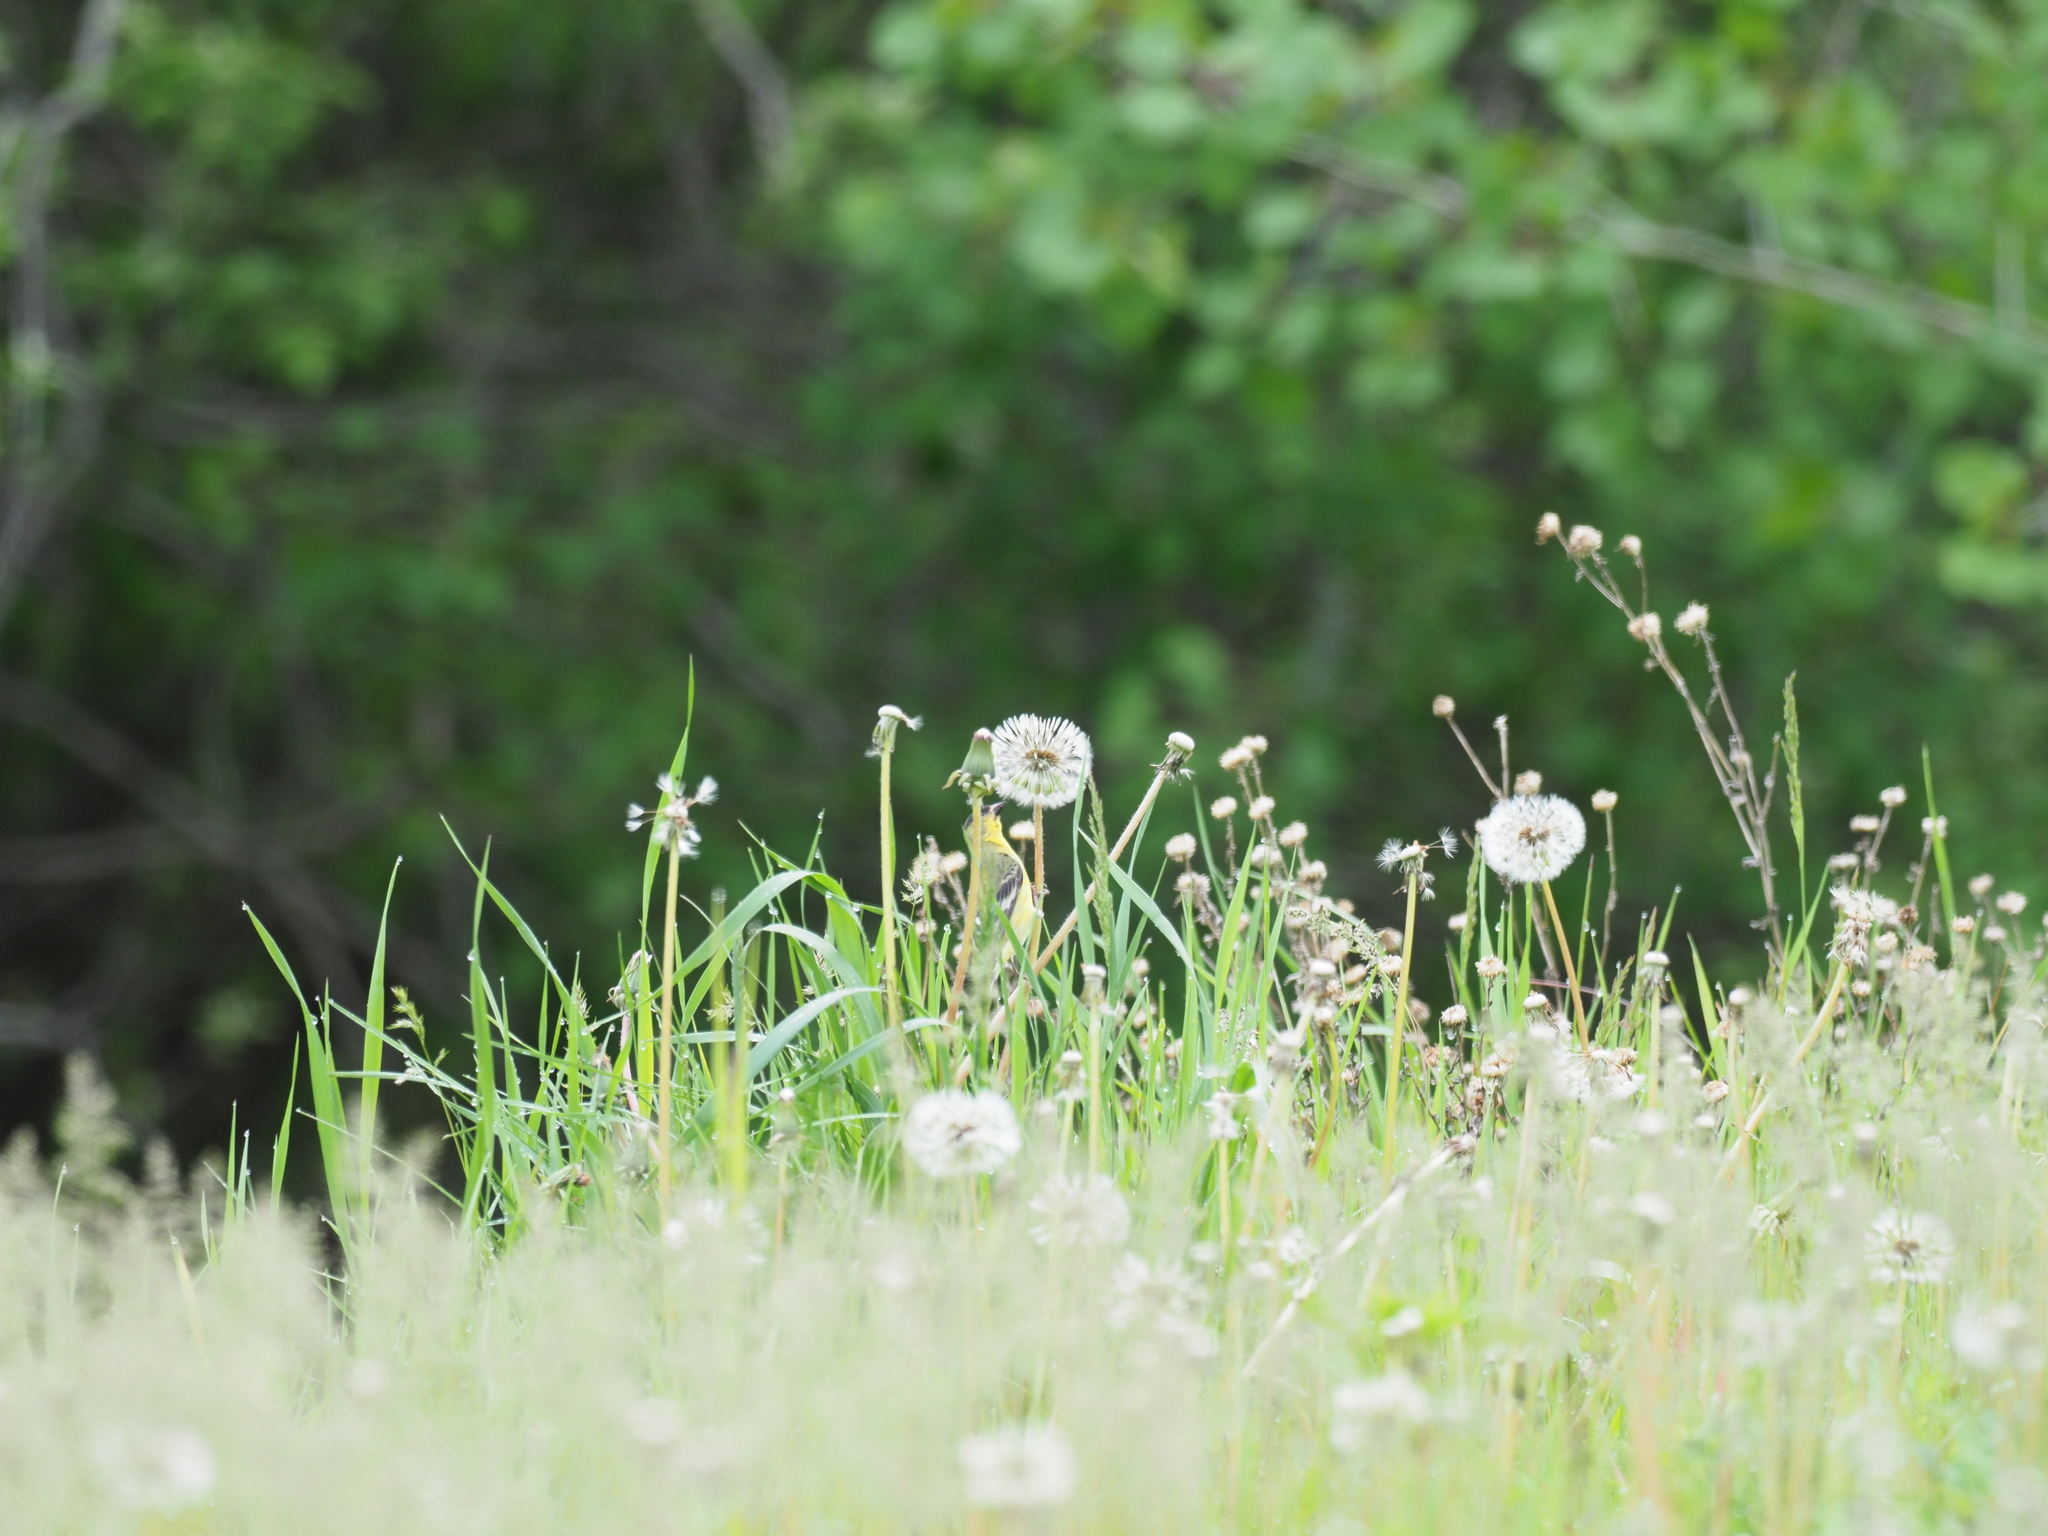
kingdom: Animalia
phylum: Chordata
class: Aves
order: Passeriformes
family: Fringillidae
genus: Spinus
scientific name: Spinus psaltria
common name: Lesser goldfinch
